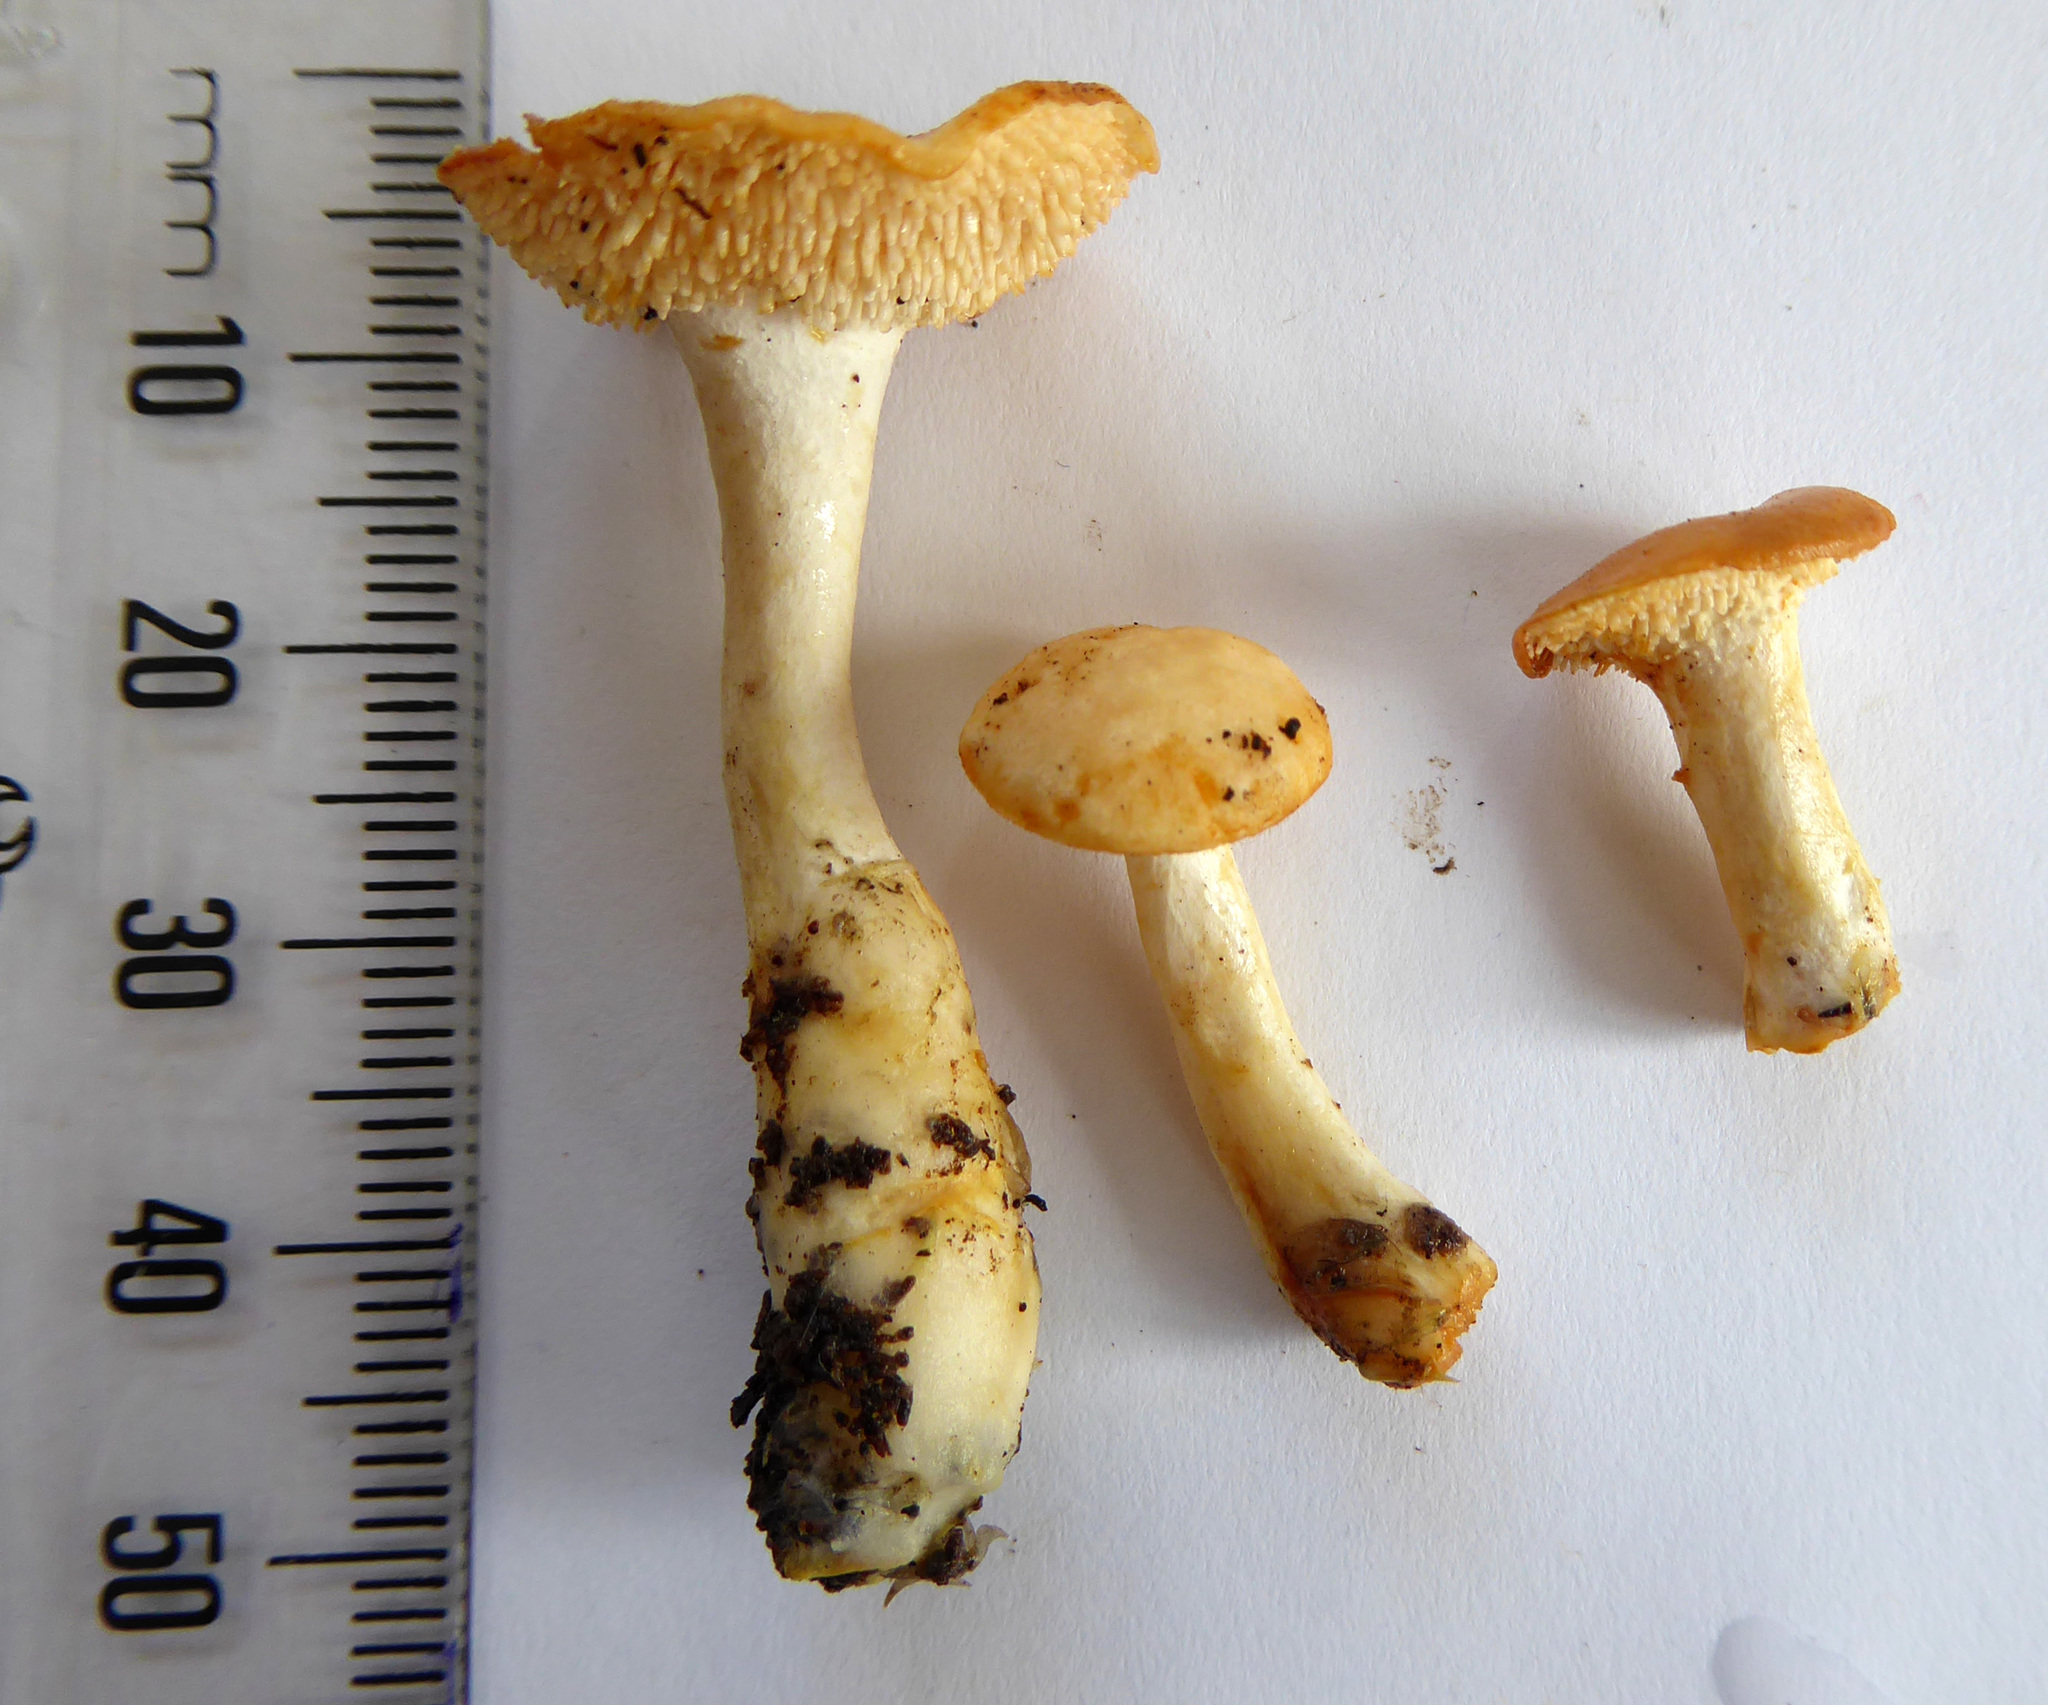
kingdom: Fungi
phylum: Basidiomycota
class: Agaricomycetes
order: Cantharellales
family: Hydnaceae
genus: Hydnum
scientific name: Hydnum ambustum
